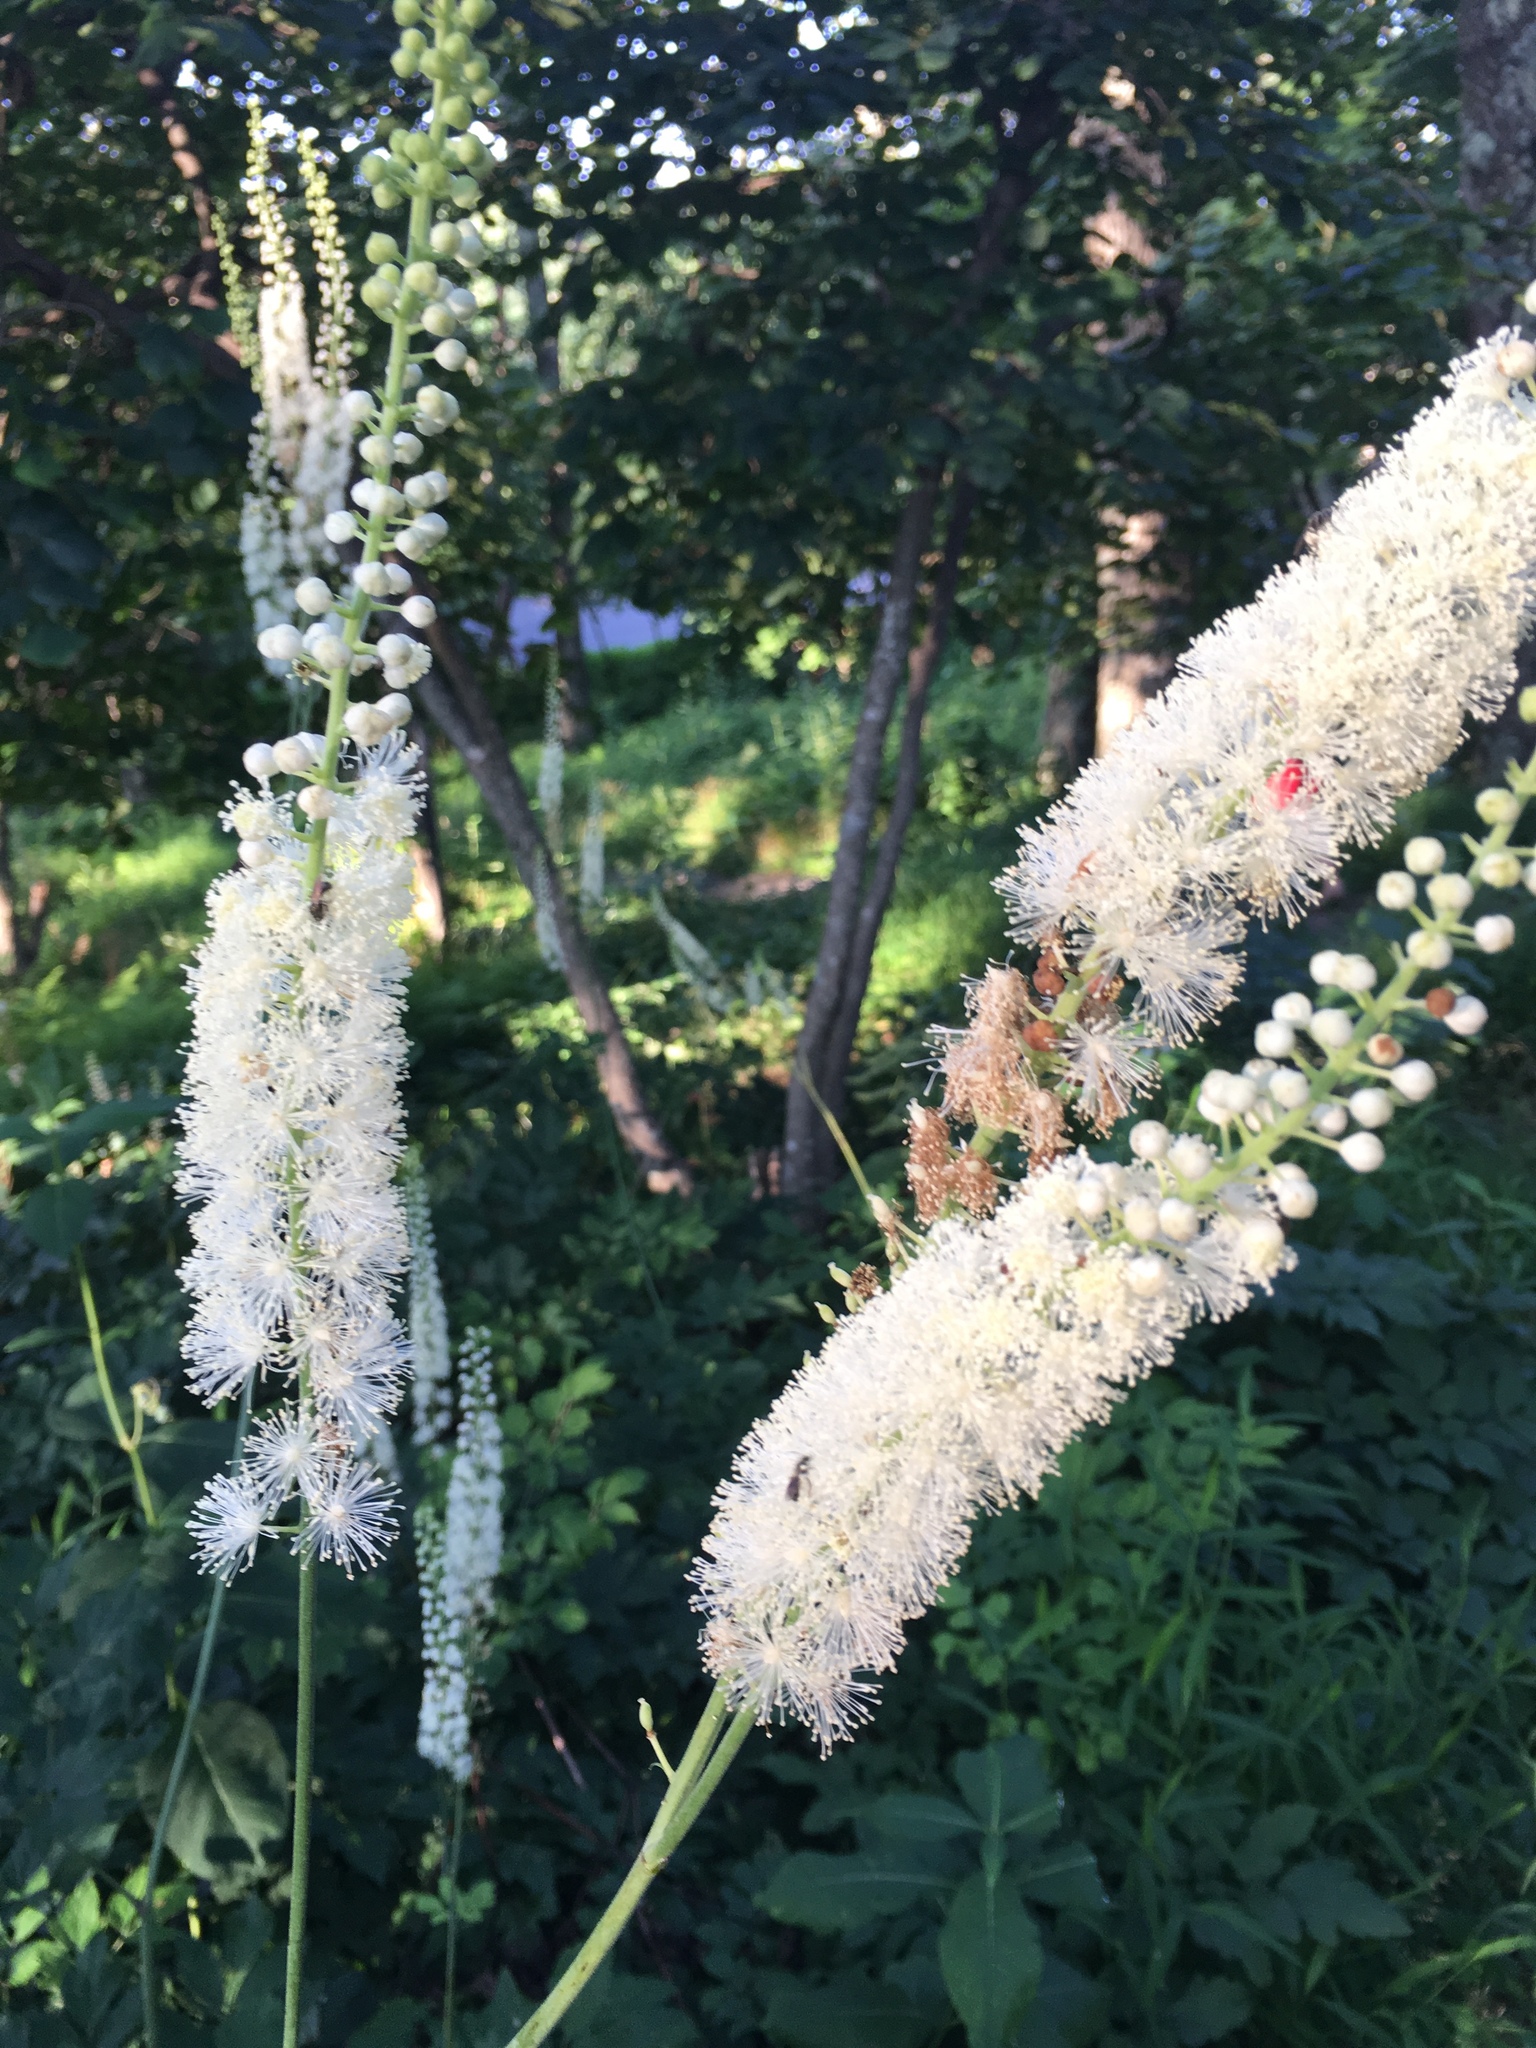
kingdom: Plantae
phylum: Tracheophyta
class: Magnoliopsida
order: Ranunculales
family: Ranunculaceae
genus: Actaea
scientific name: Actaea racemosa
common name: Black cohosh
